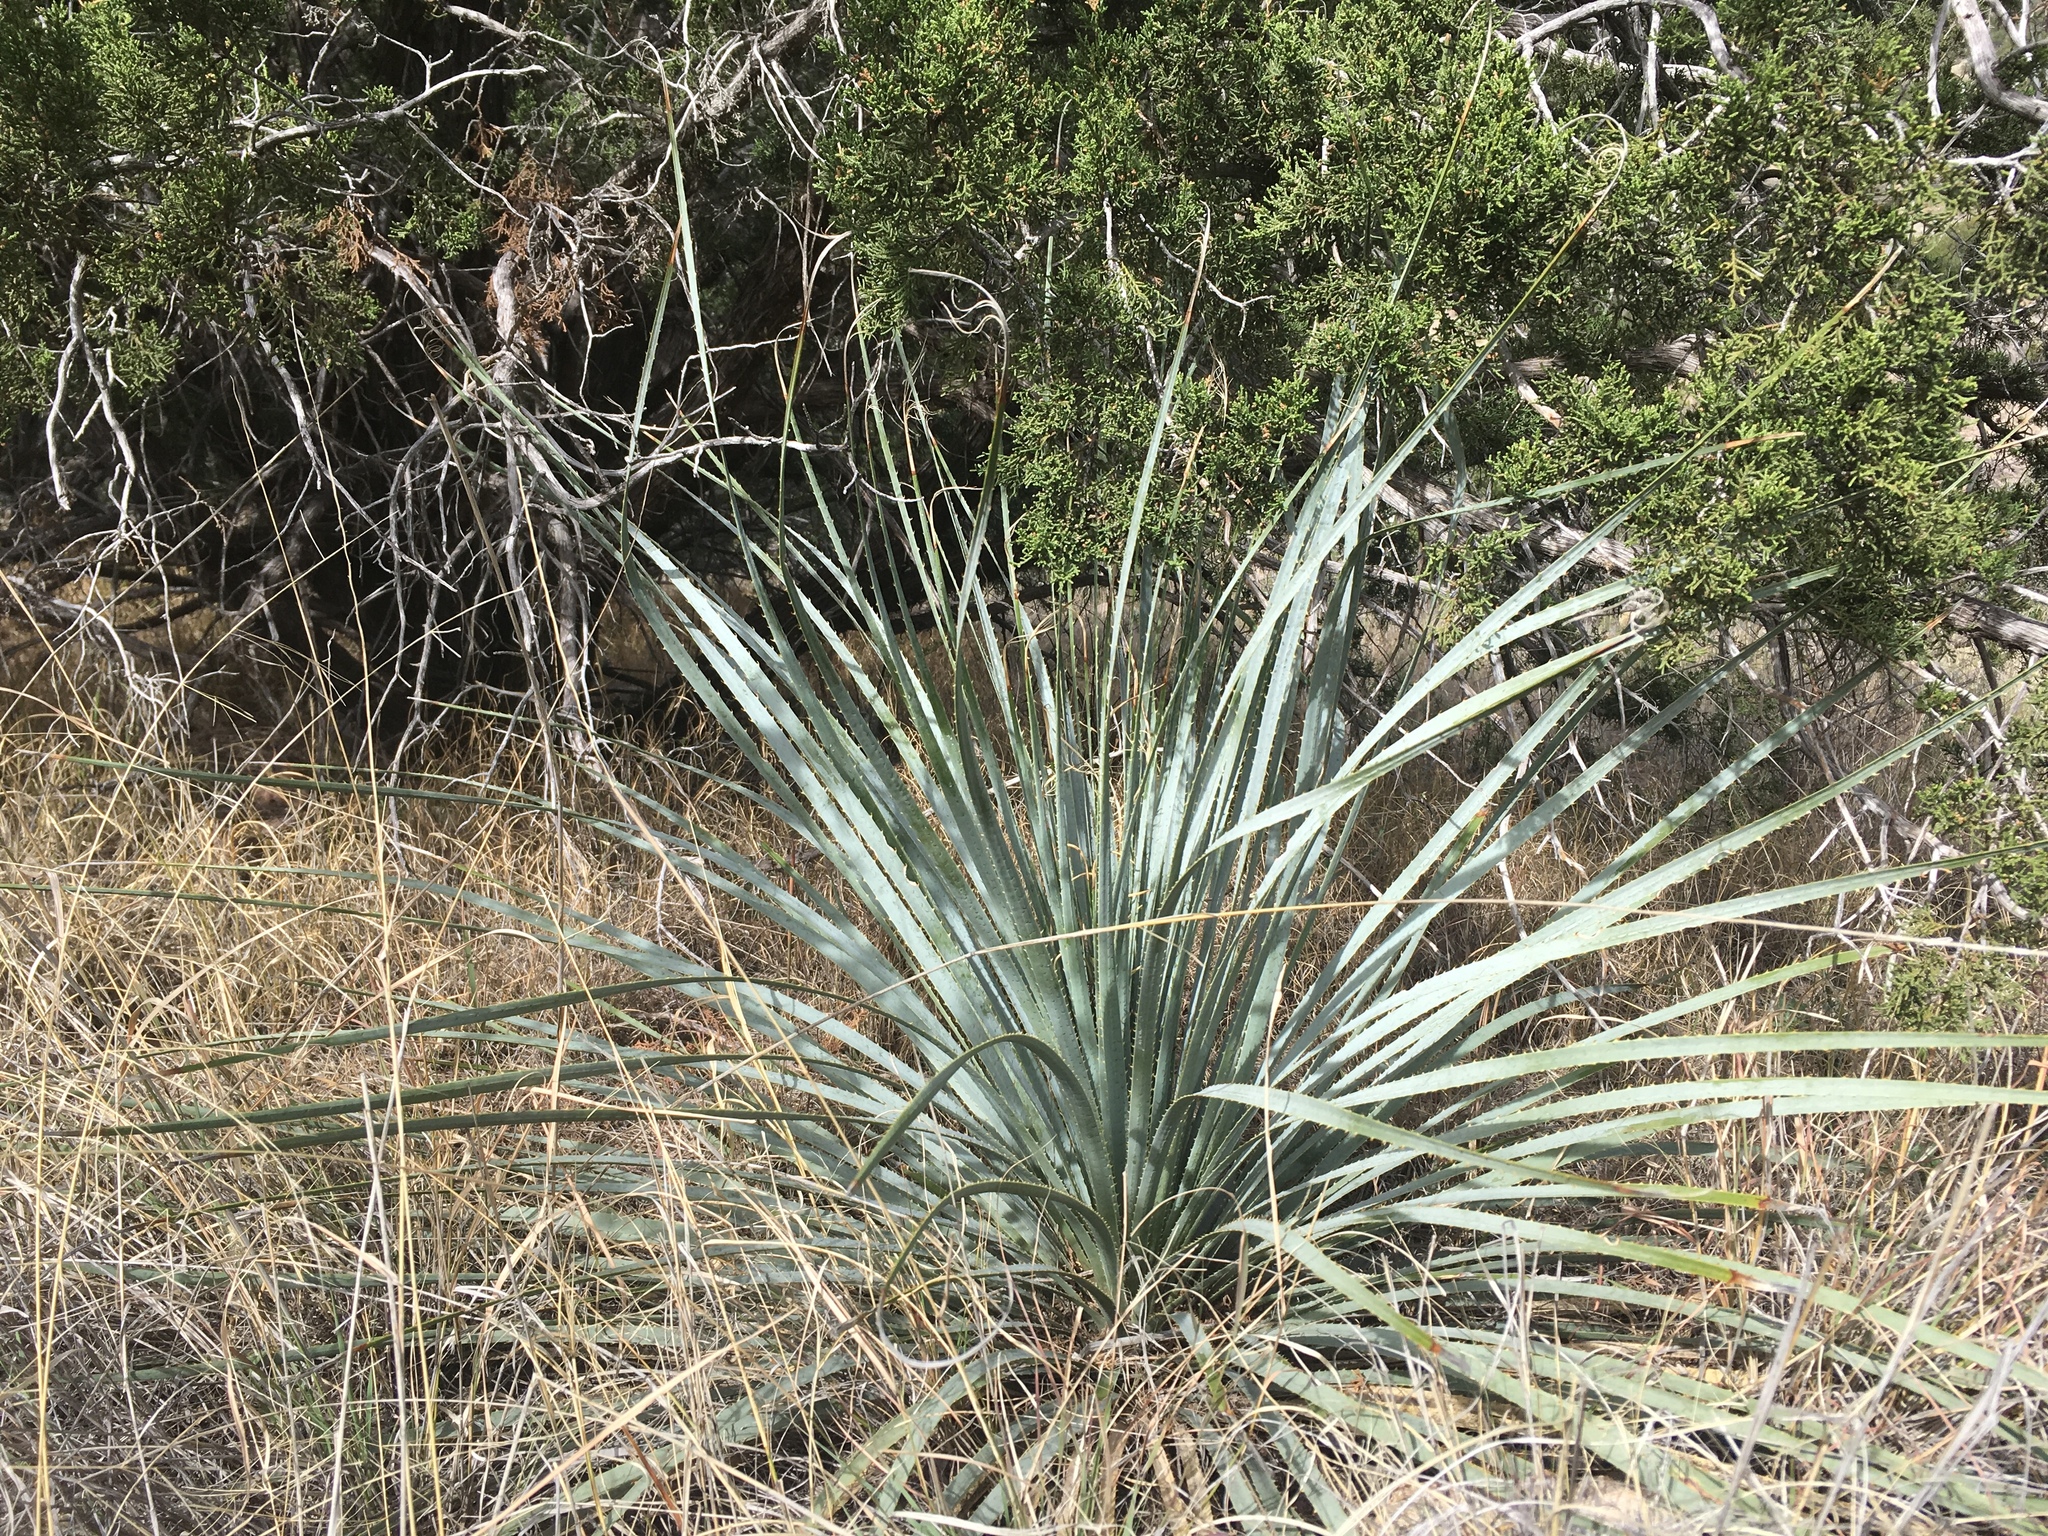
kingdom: Plantae
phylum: Tracheophyta
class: Liliopsida
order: Asparagales
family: Asparagaceae
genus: Dasylirion
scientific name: Dasylirion wheeleri
